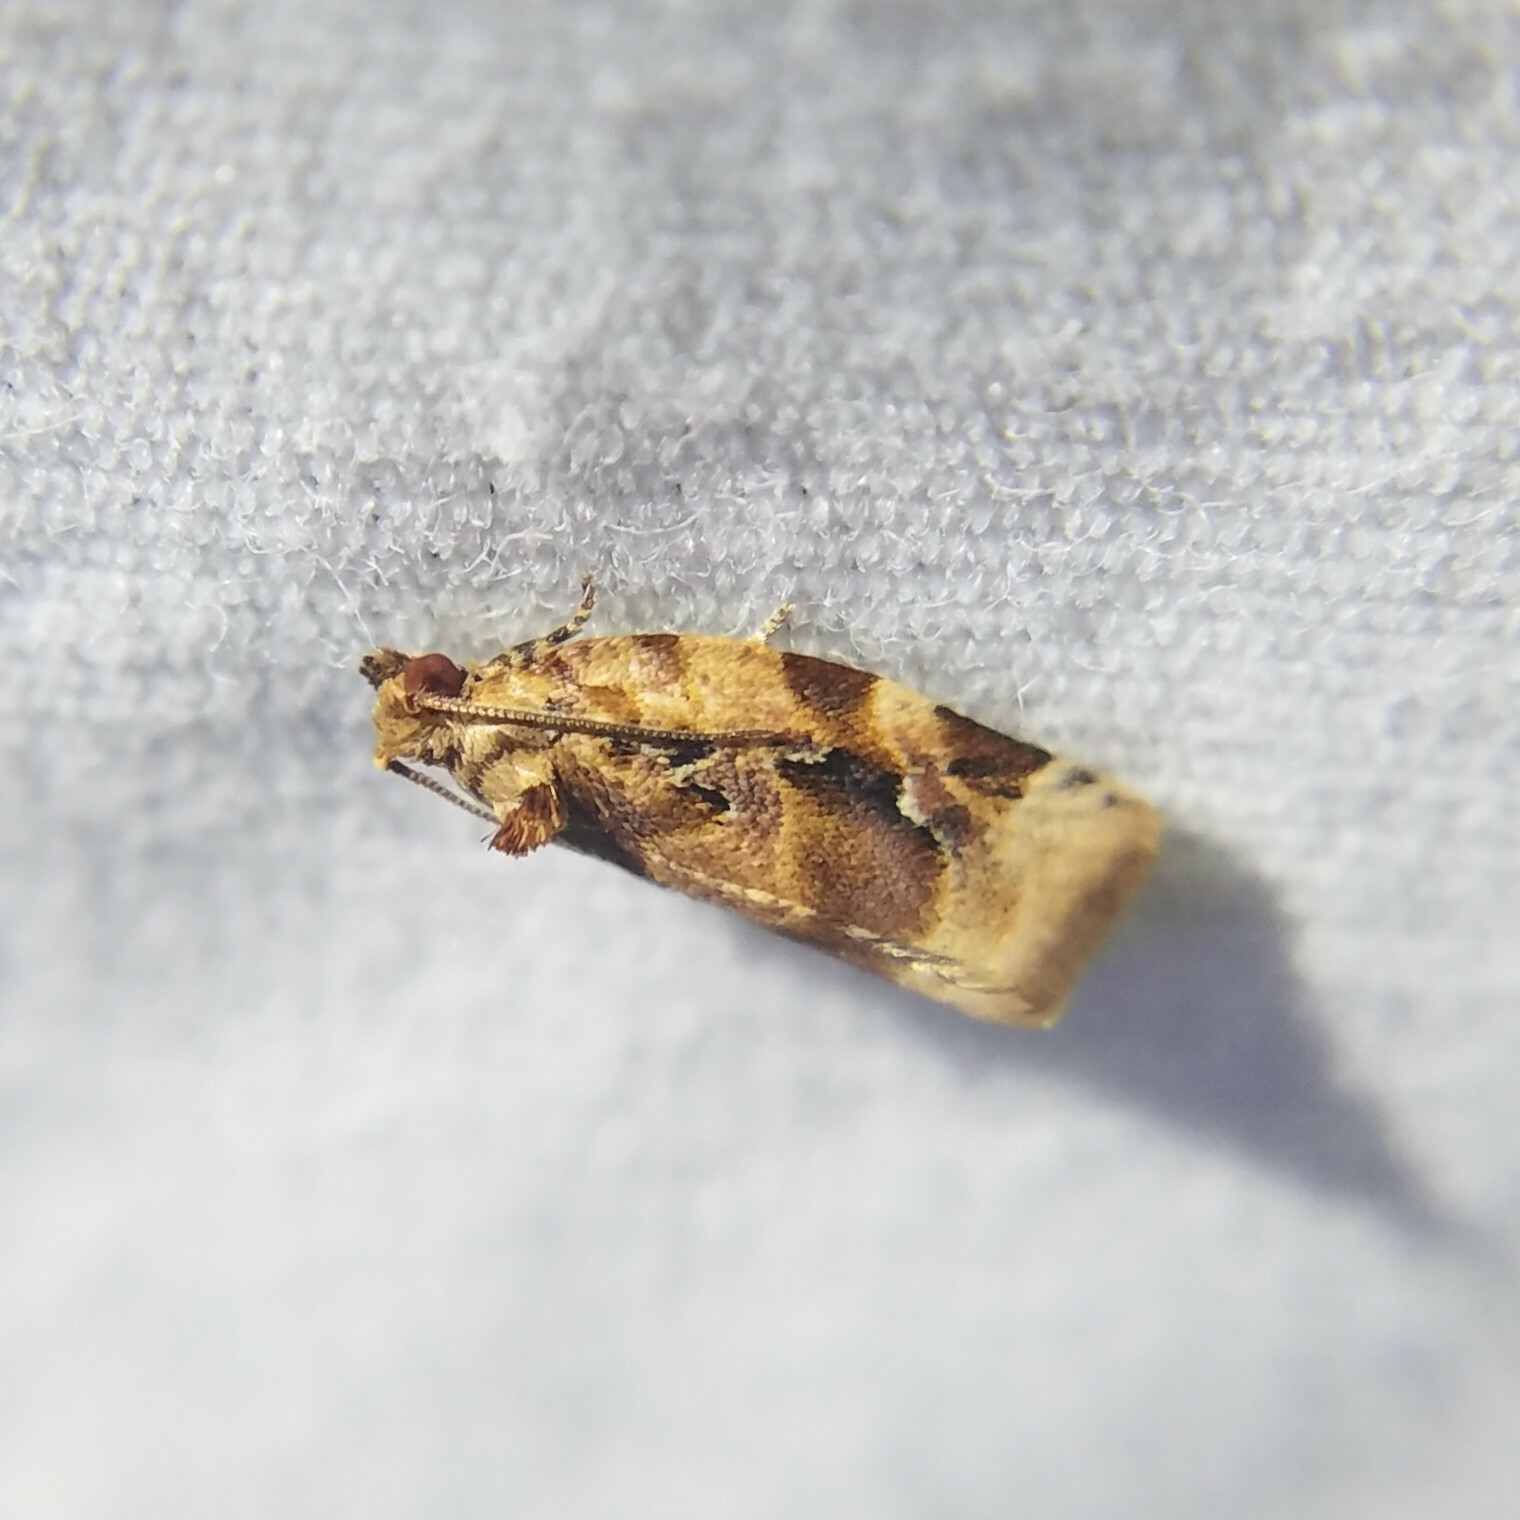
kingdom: Animalia
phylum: Arthropoda
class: Insecta
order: Lepidoptera
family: Tortricidae
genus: Argyrotaenia
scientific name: Argyrotaenia velutinana
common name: Red-banded leafroller moth
